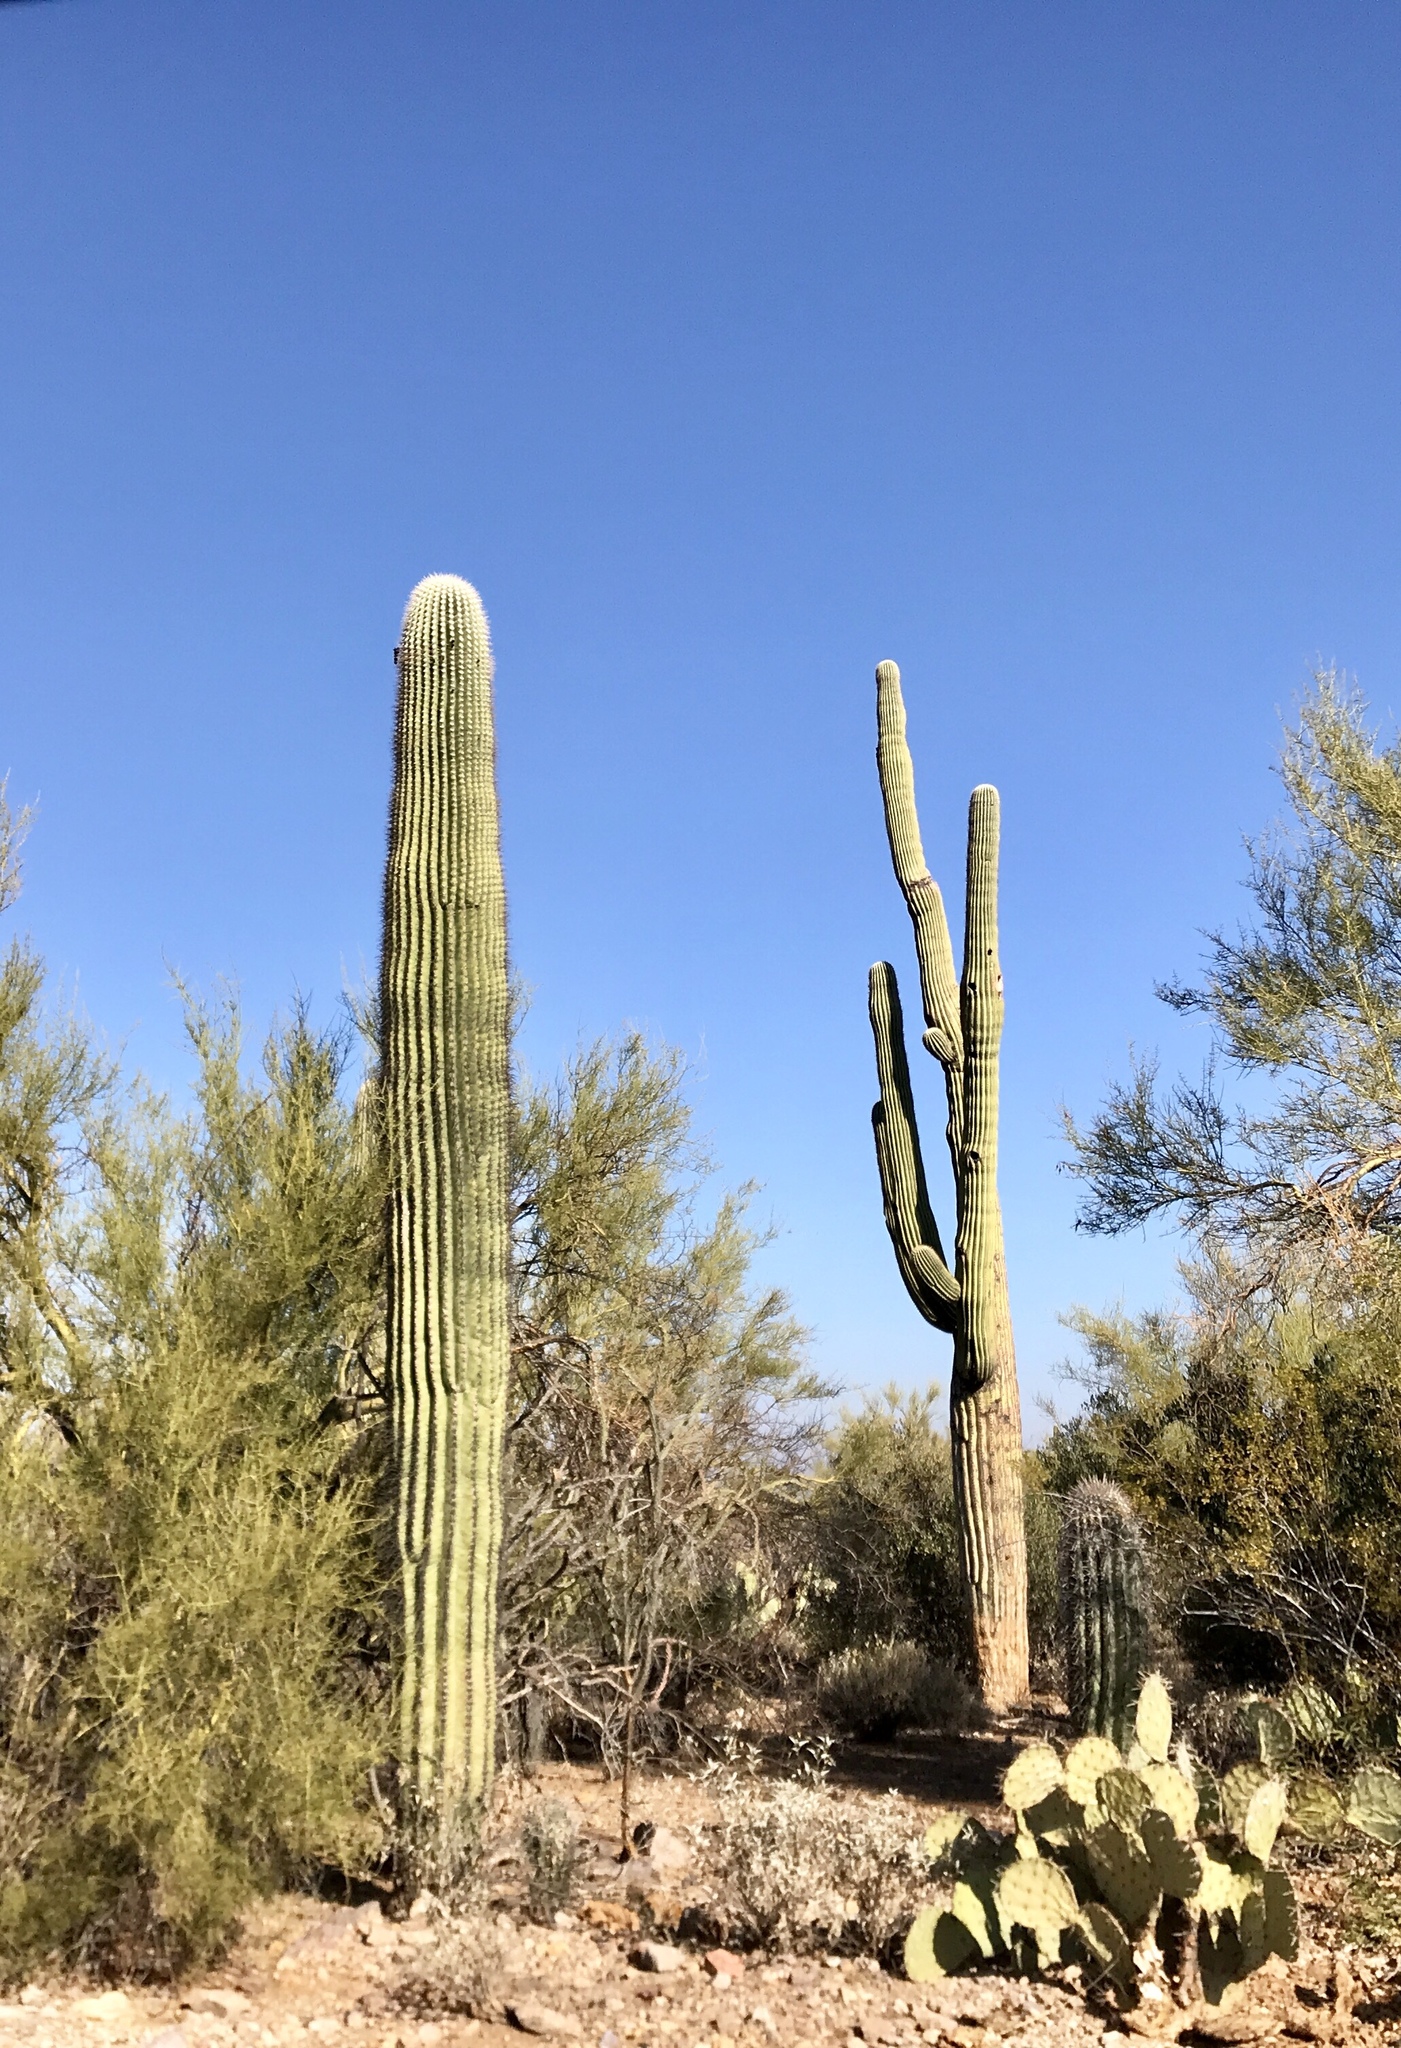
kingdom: Plantae
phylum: Tracheophyta
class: Magnoliopsida
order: Caryophyllales
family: Cactaceae
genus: Carnegiea
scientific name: Carnegiea gigantea
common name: Saguaro
